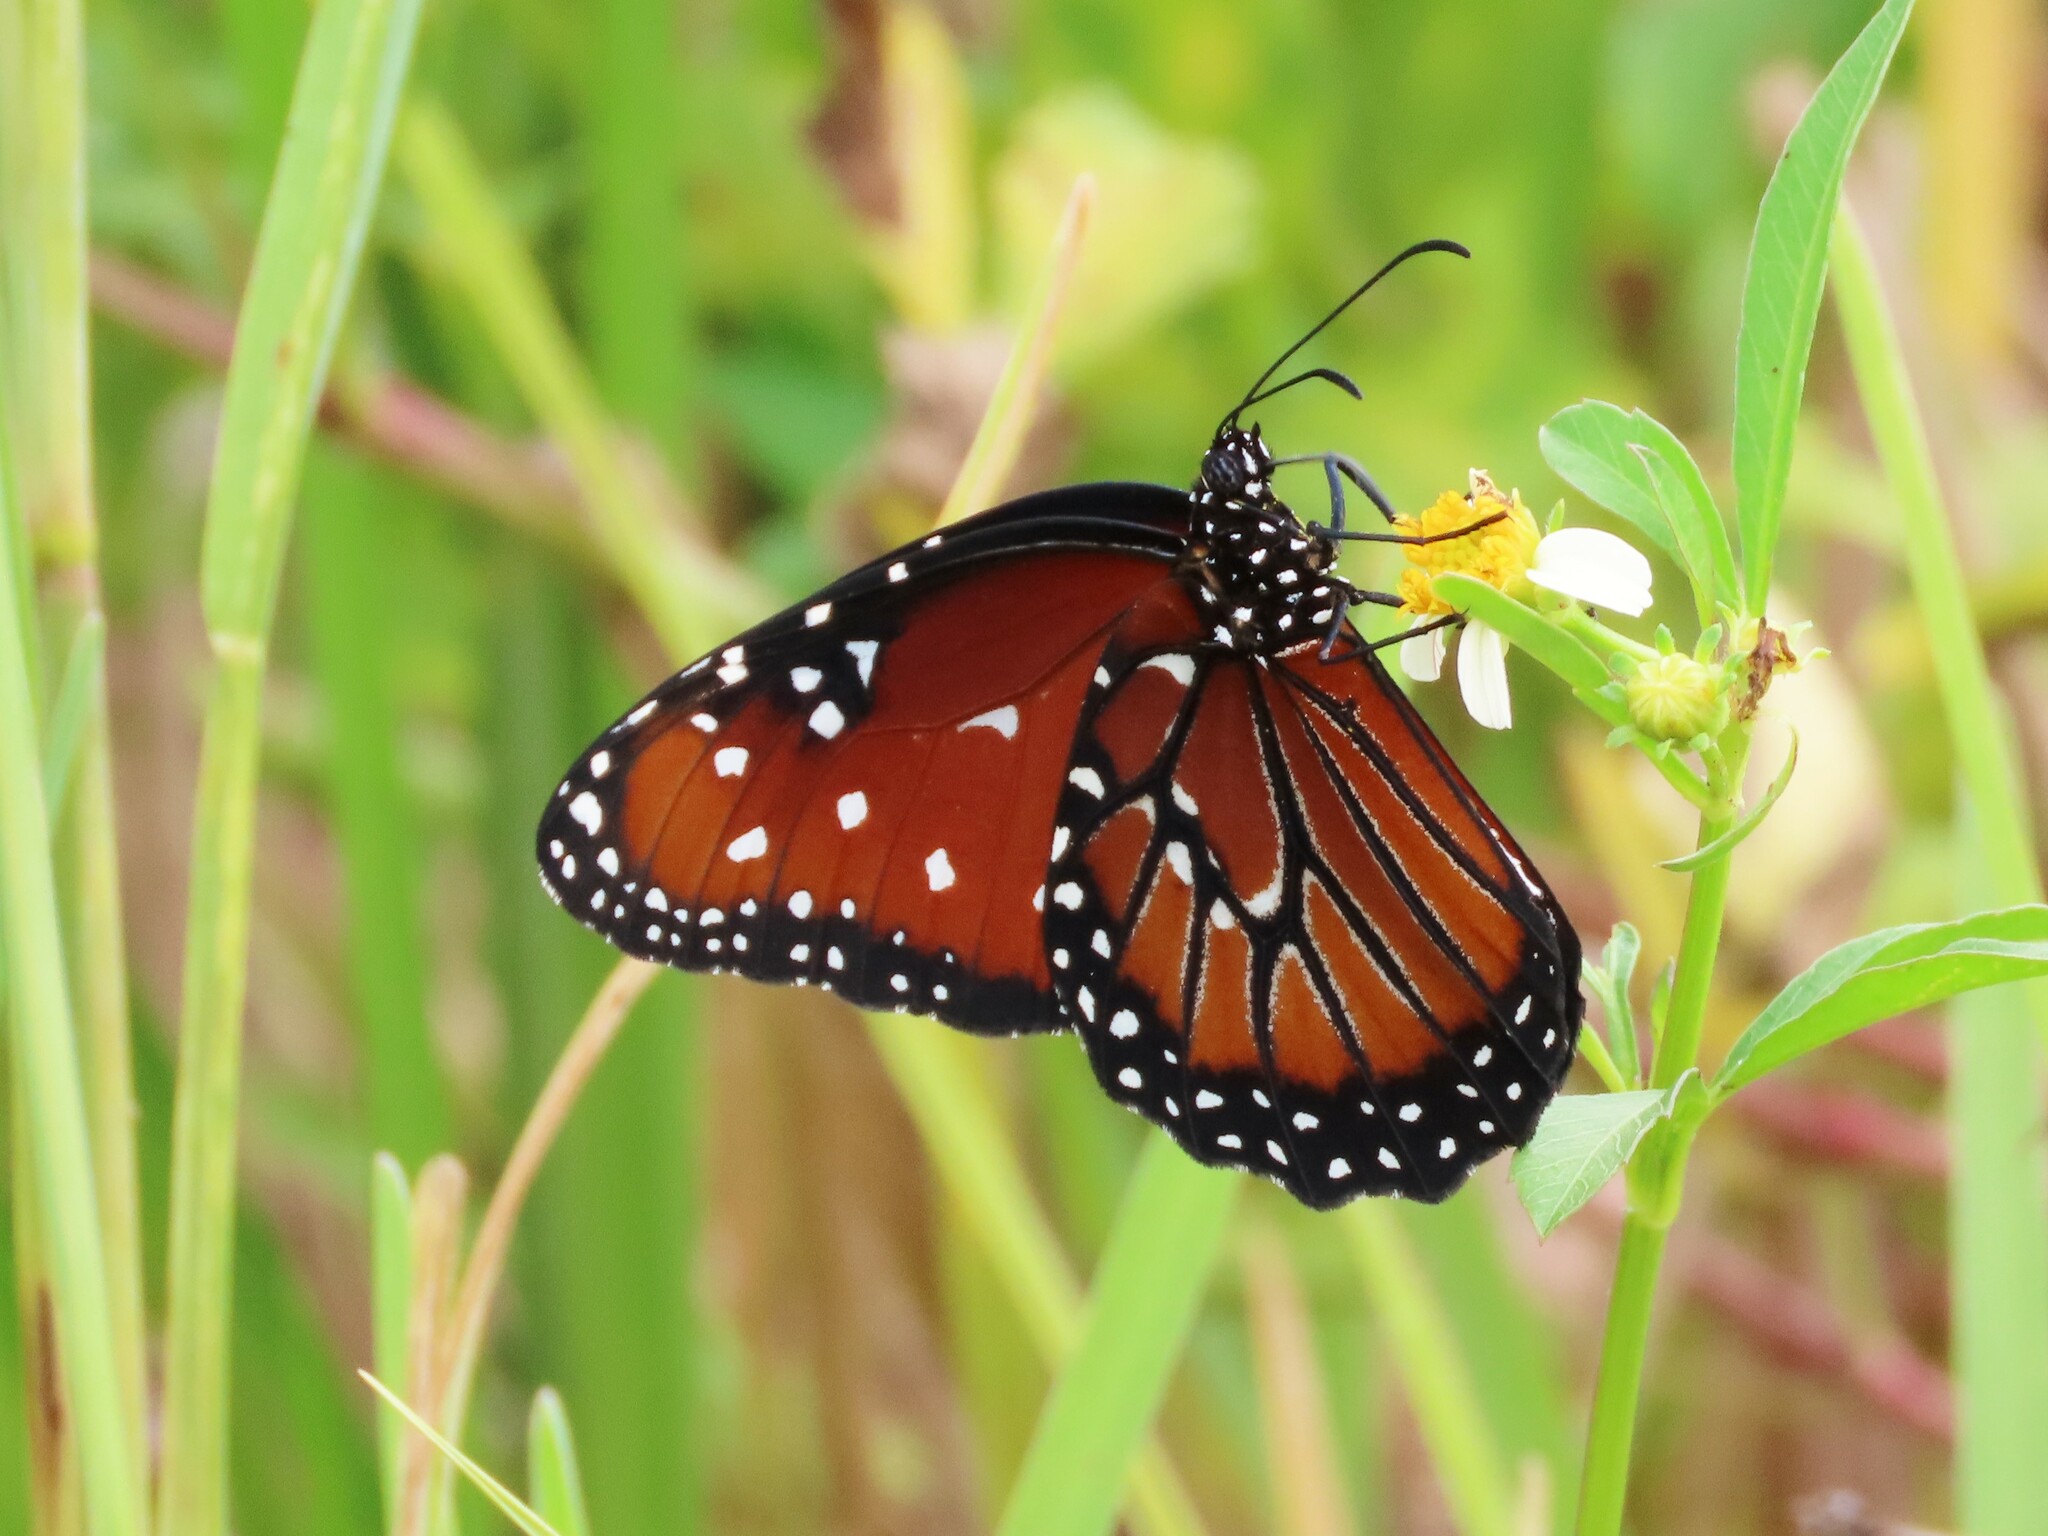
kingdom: Animalia
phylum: Arthropoda
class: Insecta
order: Lepidoptera
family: Nymphalidae
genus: Danaus
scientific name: Danaus gilippus
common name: Queen
